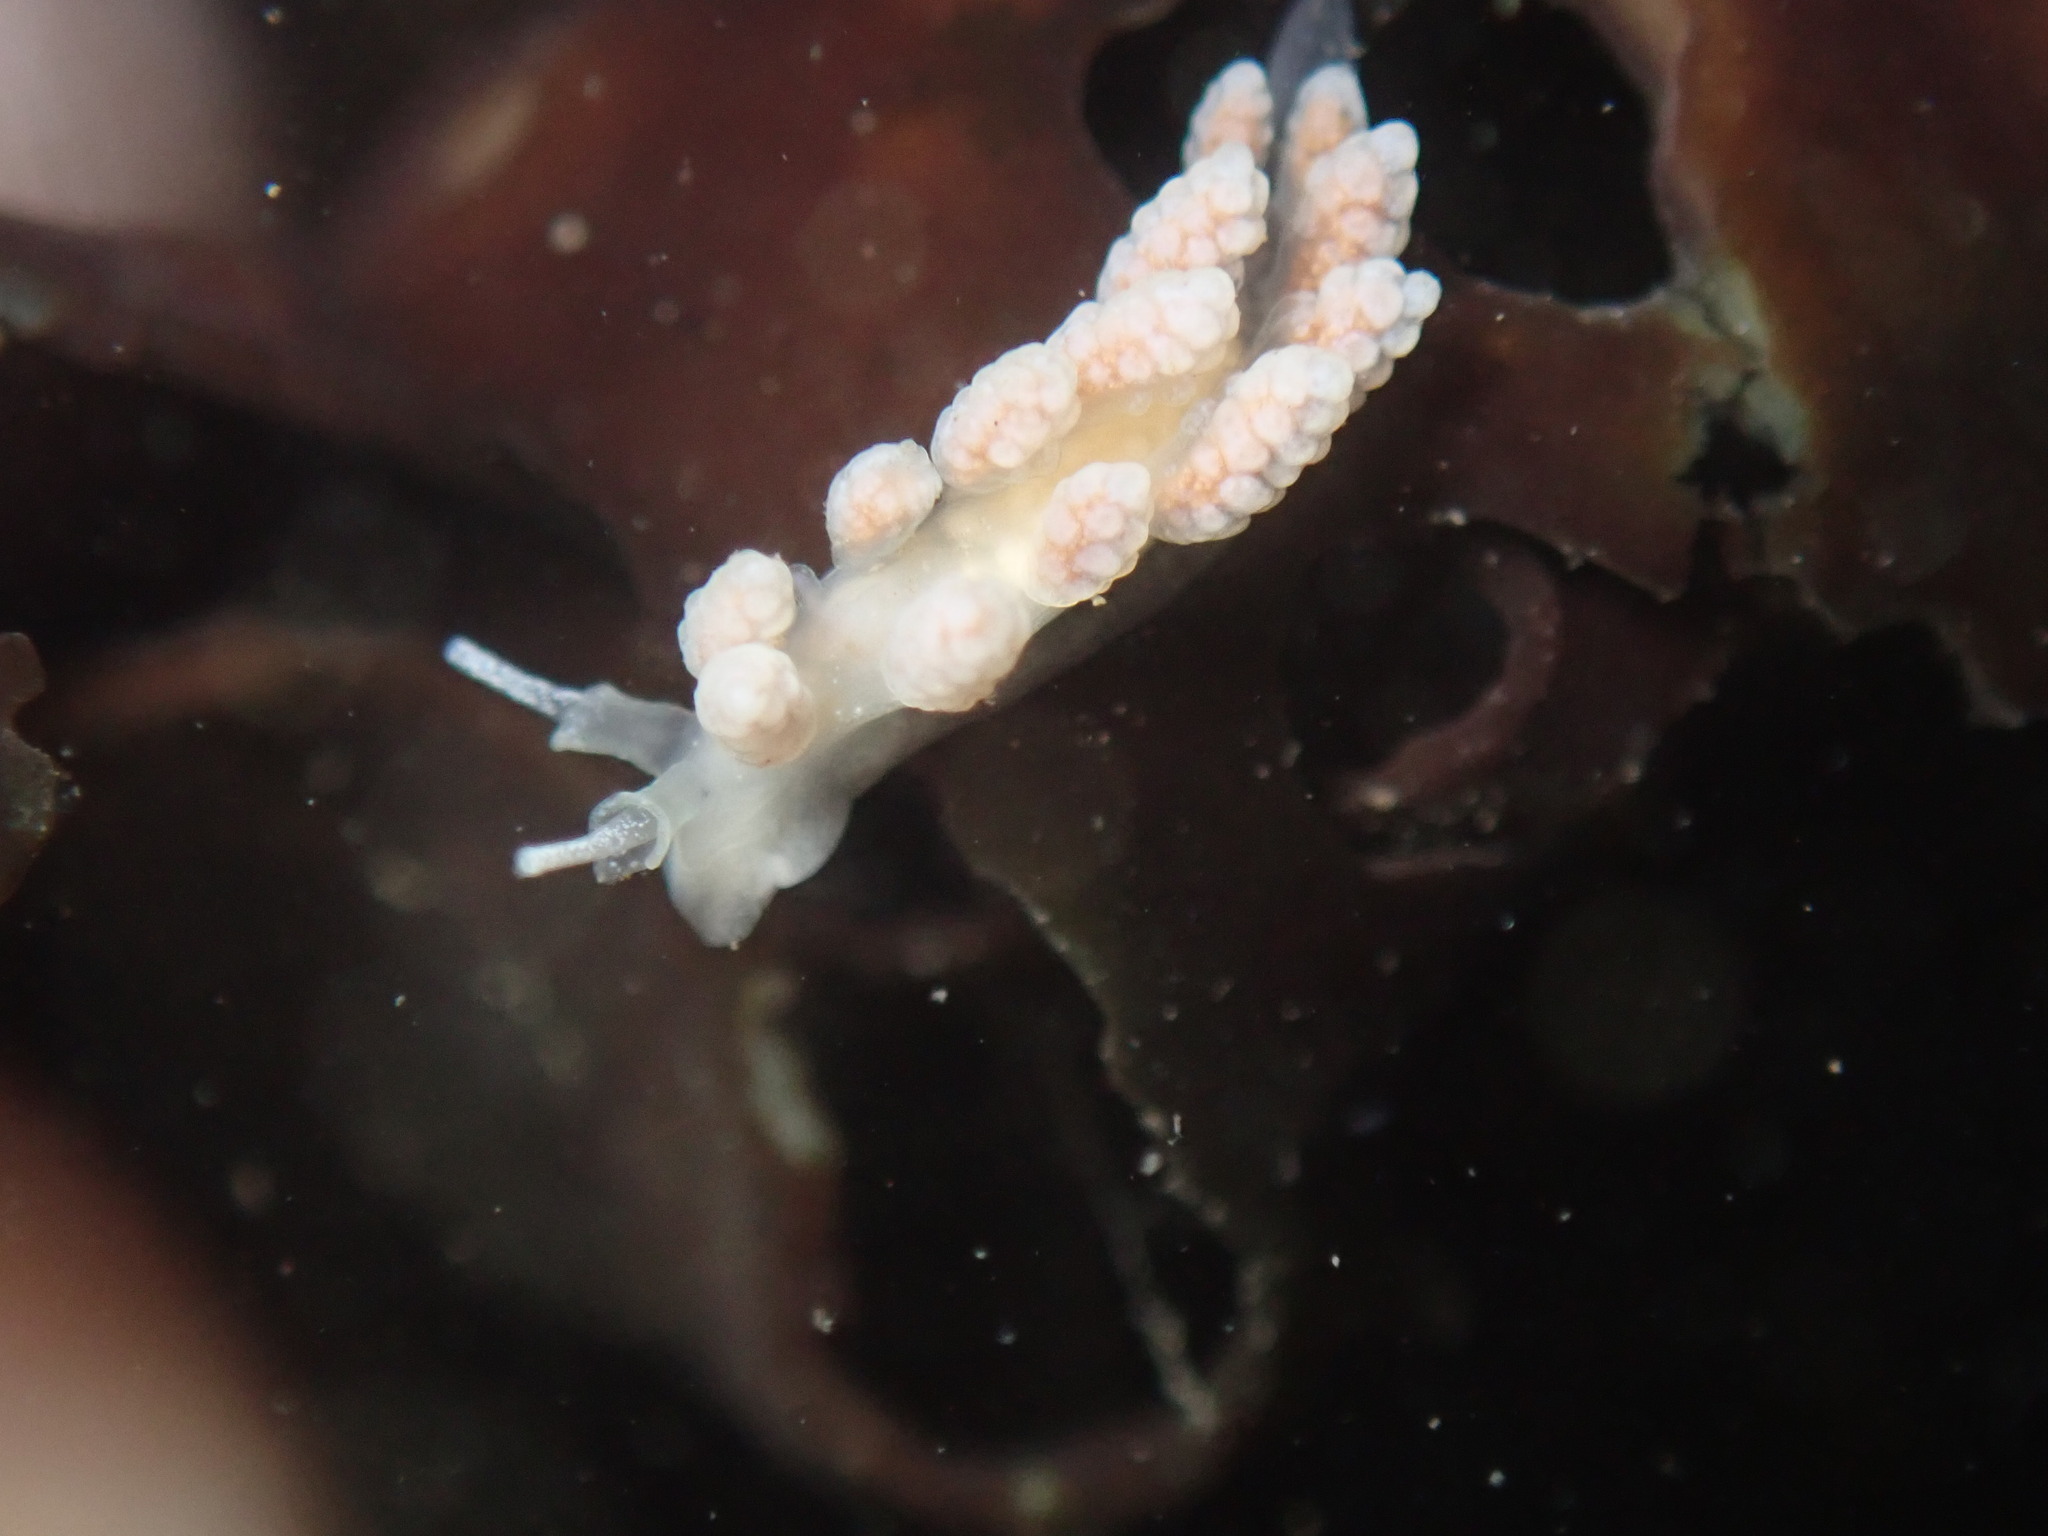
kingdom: Animalia
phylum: Mollusca
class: Gastropoda
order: Nudibranchia
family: Dotidae
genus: Doto
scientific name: Doto amyra
